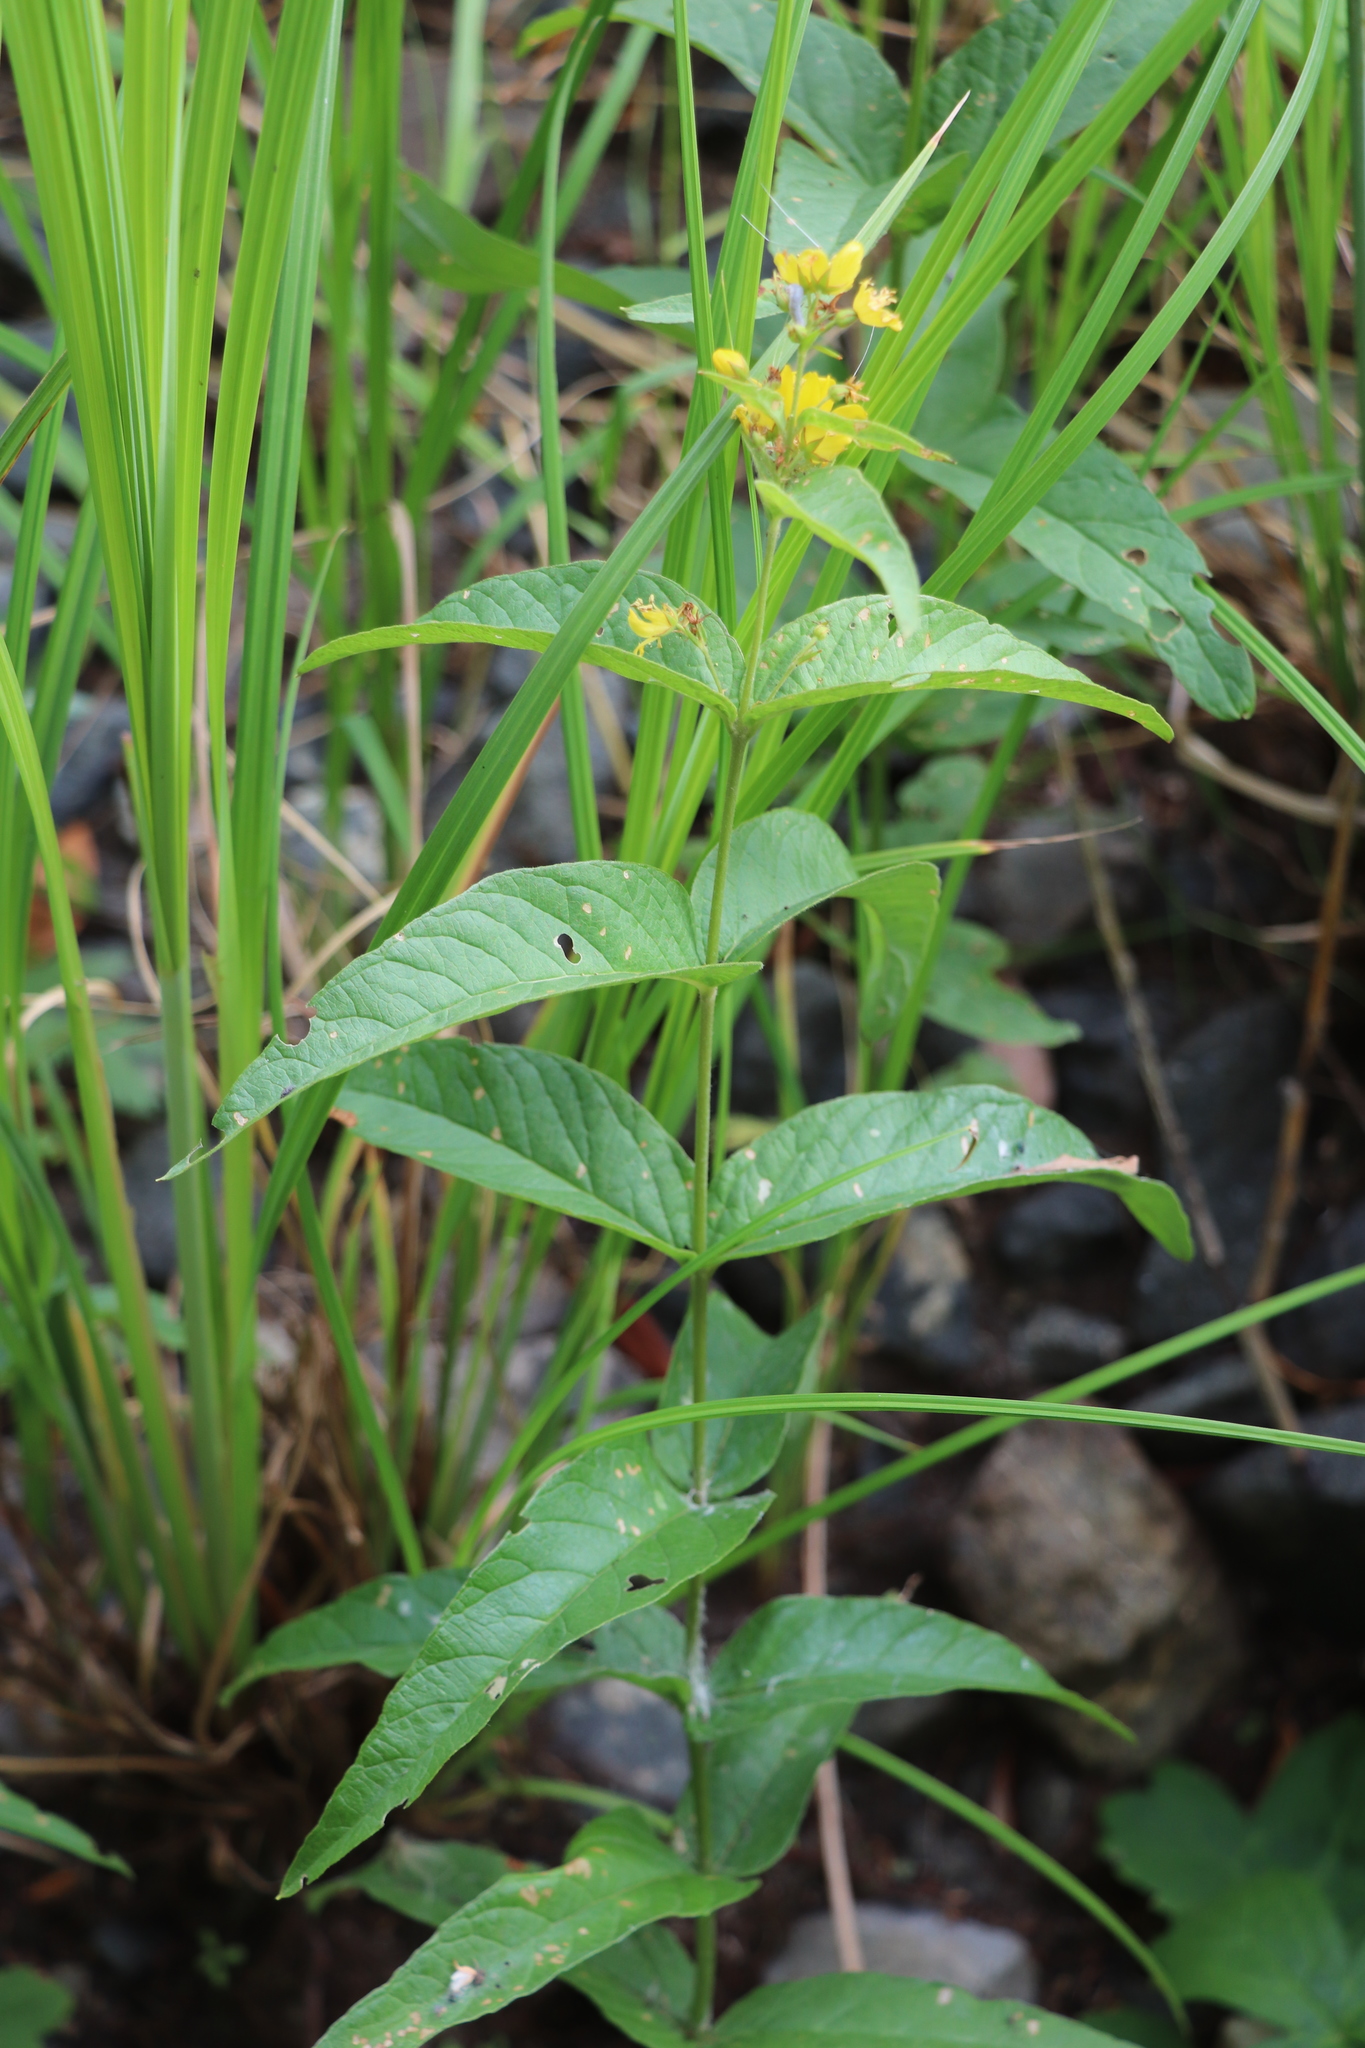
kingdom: Plantae
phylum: Tracheophyta
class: Magnoliopsida
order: Ericales
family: Primulaceae
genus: Lysimachia
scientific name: Lysimachia vulgaris
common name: Yellow loosestrife
